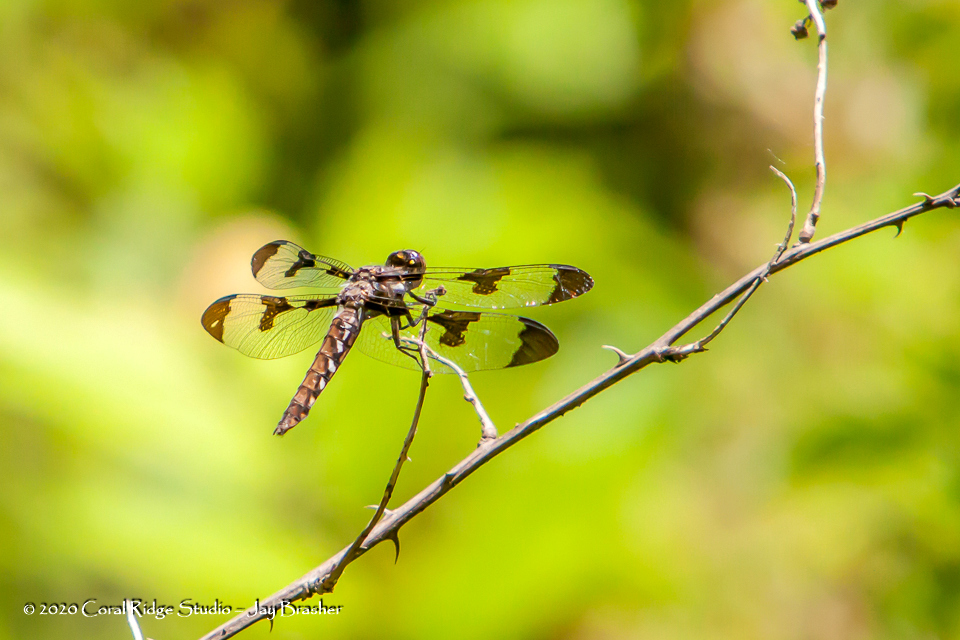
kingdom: Animalia
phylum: Arthropoda
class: Insecta
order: Odonata
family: Libellulidae
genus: Plathemis
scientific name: Plathemis lydia
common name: Common whitetail
